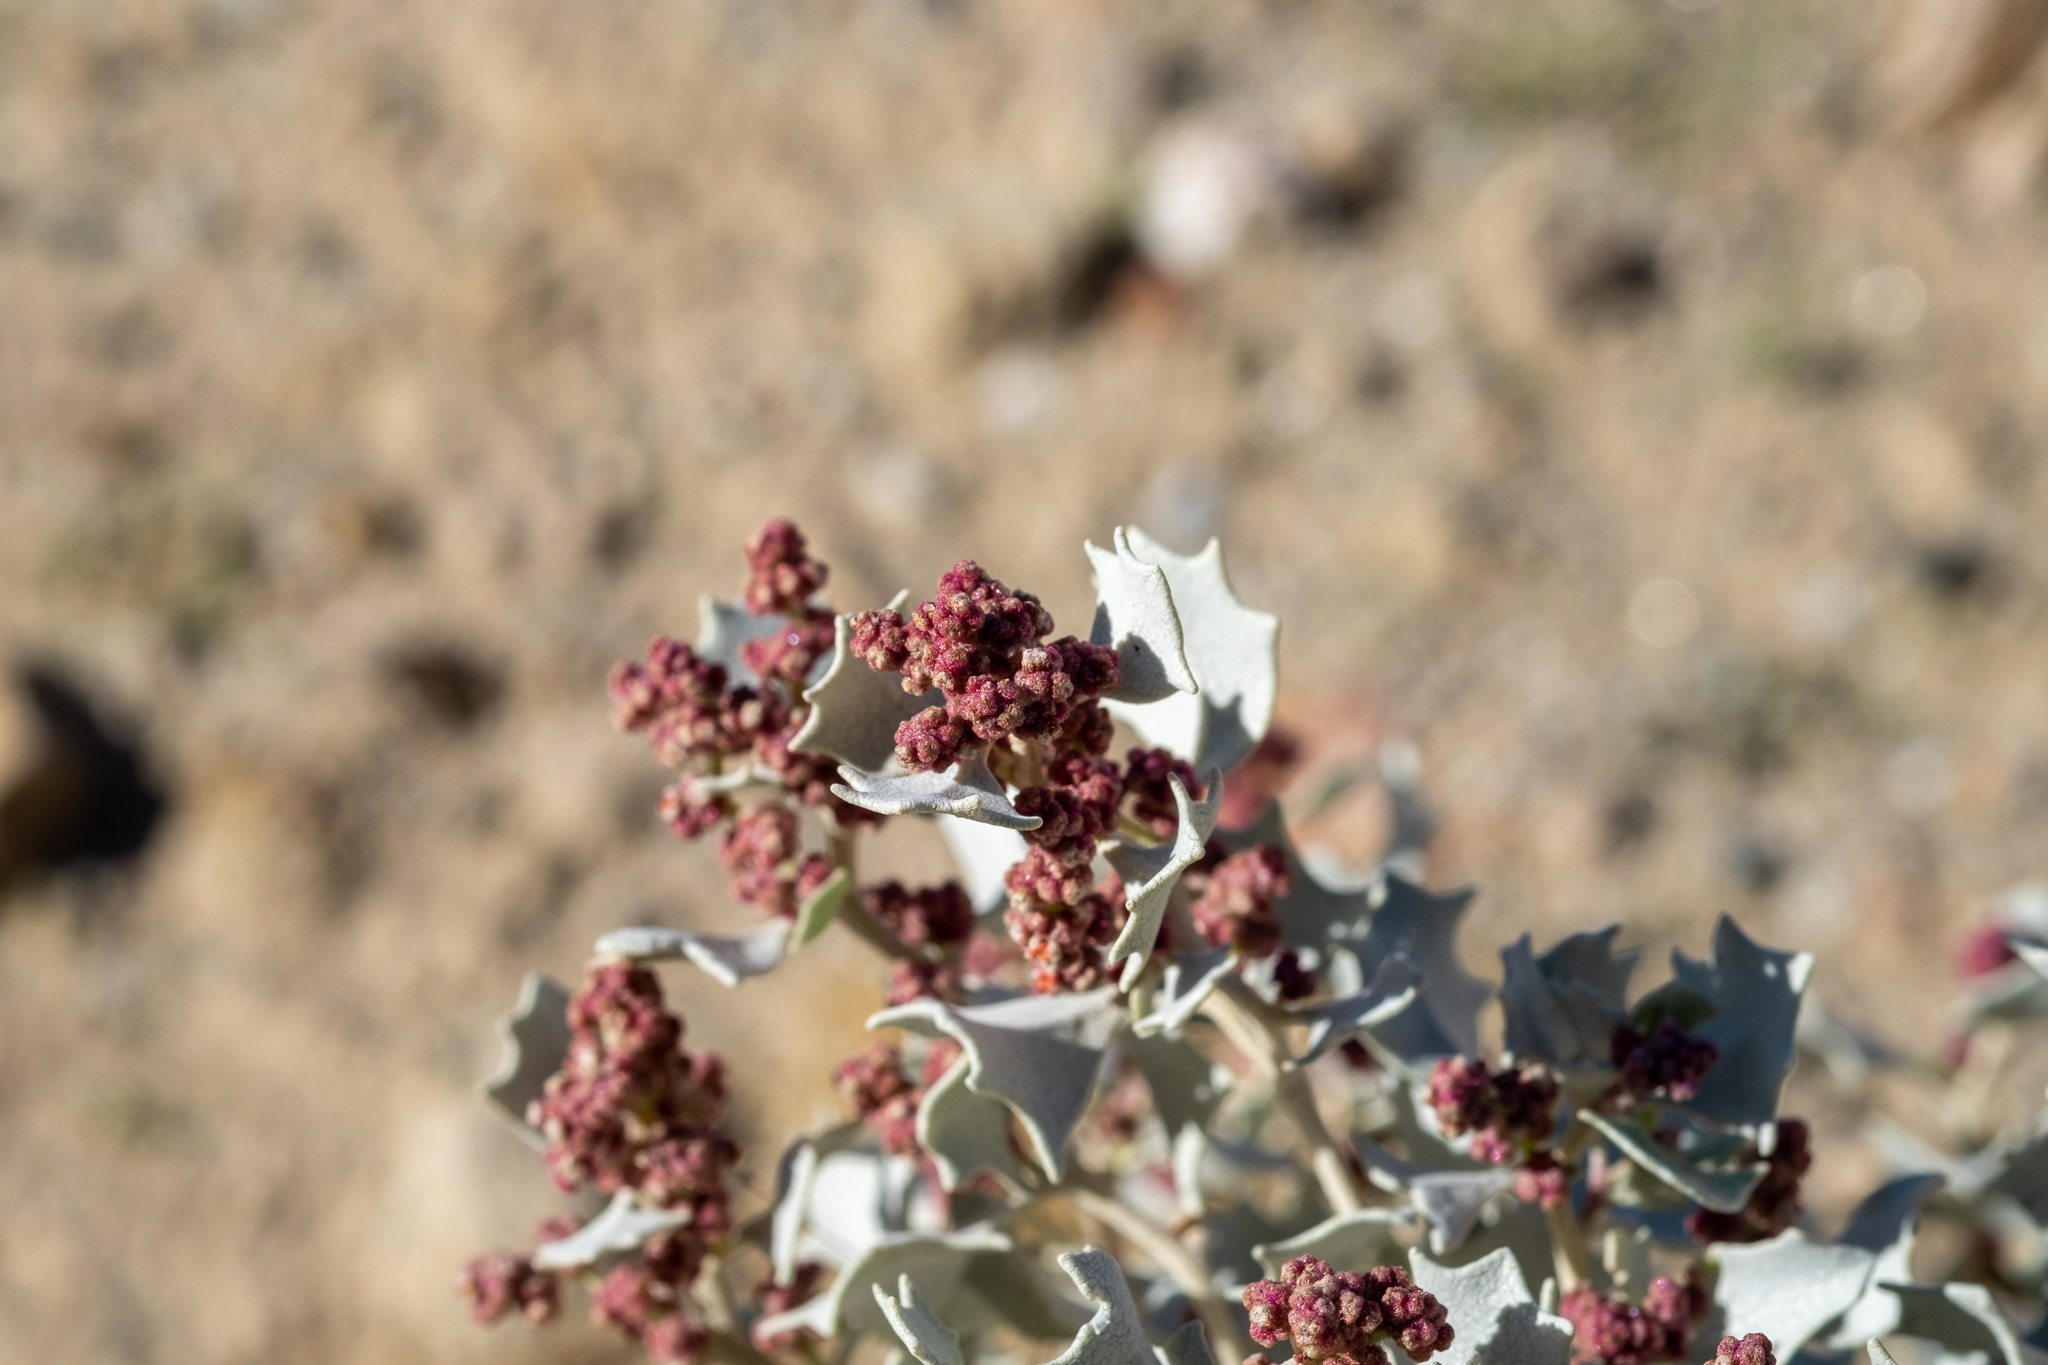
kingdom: Plantae
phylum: Tracheophyta
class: Magnoliopsida
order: Caryophyllales
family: Amaranthaceae
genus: Atriplex
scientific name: Atriplex hymenelytra
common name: Desert-holly
